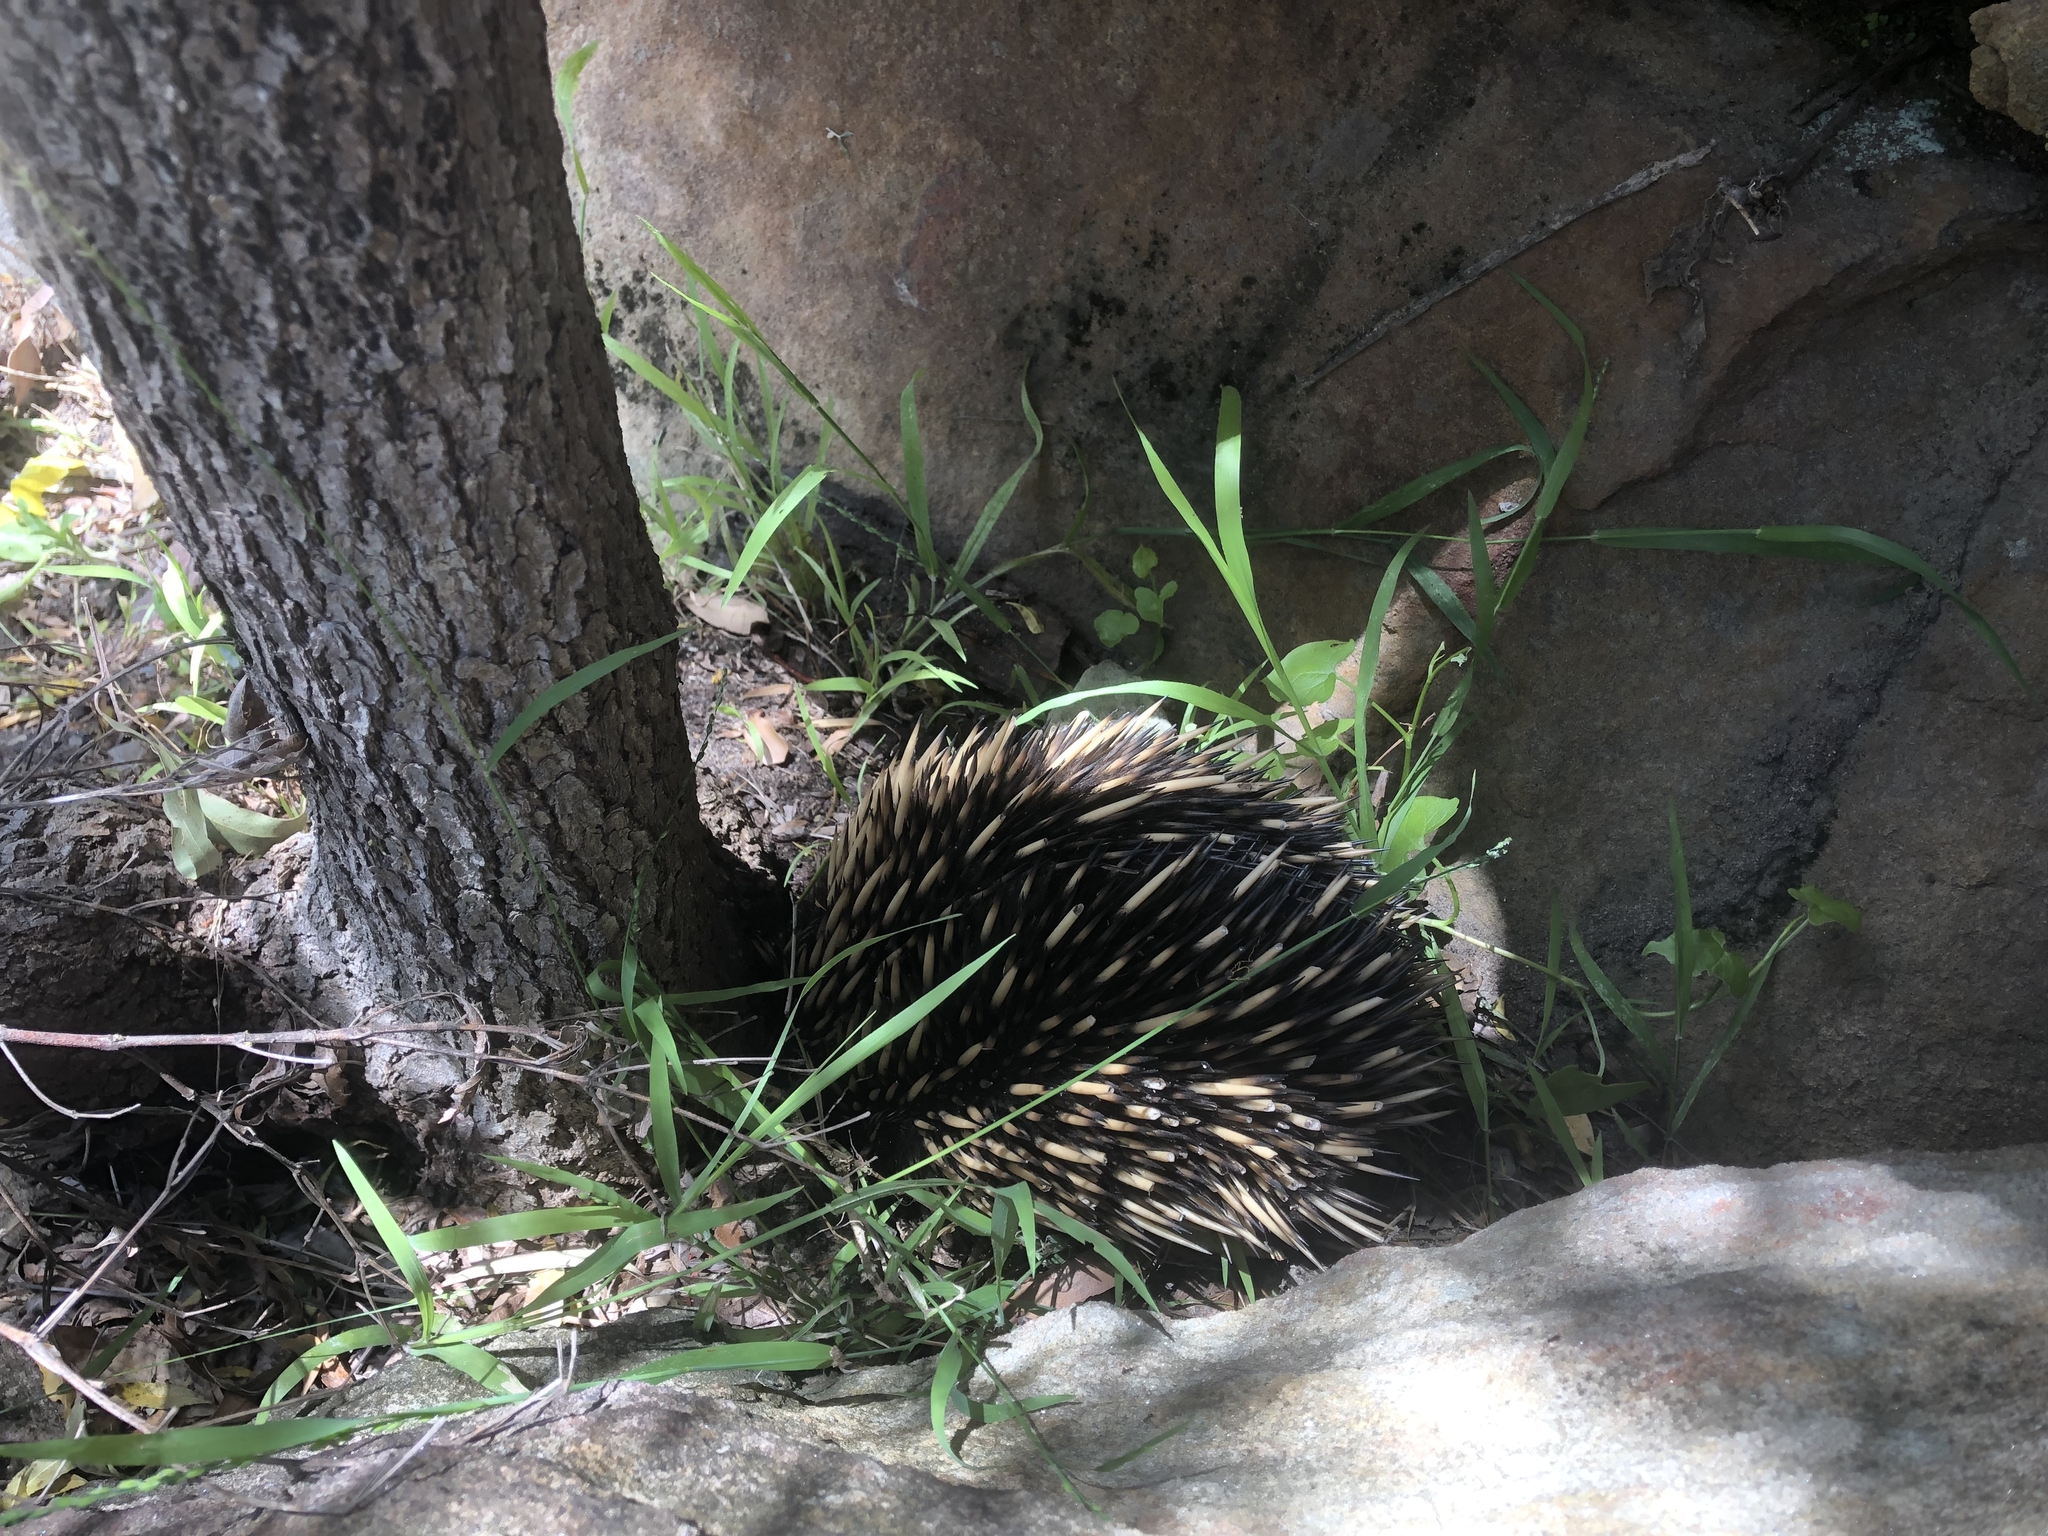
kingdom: Animalia
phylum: Chordata
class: Mammalia
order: Monotremata
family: Tachyglossidae
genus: Tachyglossus
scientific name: Tachyglossus aculeatus
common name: Short-beaked echidna
